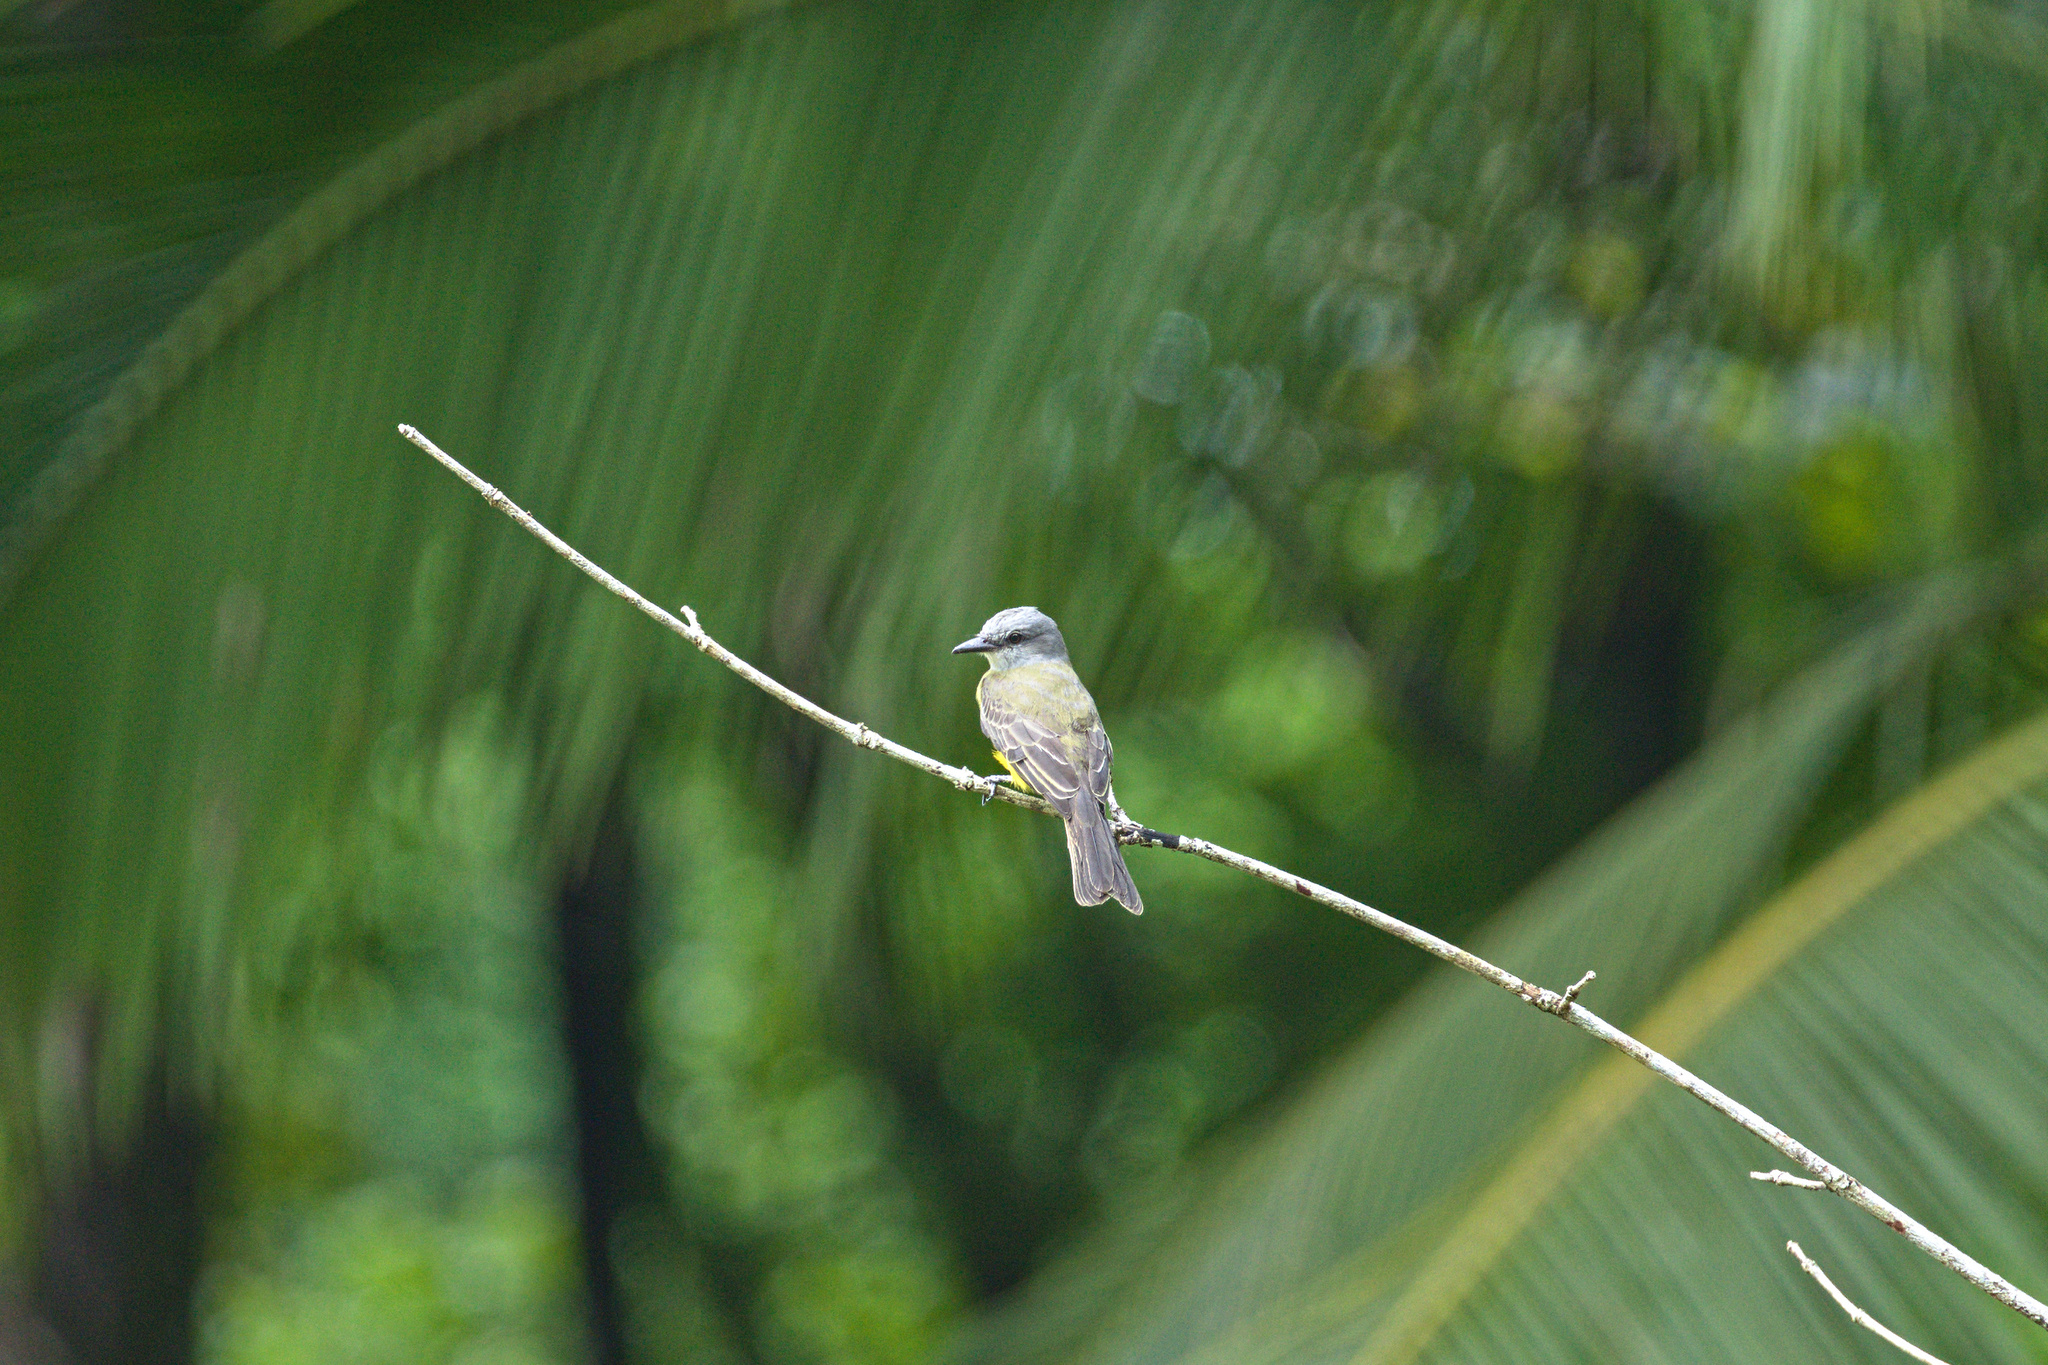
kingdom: Animalia
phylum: Chordata
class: Aves
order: Passeriformes
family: Tyrannidae
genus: Tyrannus
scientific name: Tyrannus melancholicus
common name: Tropical kingbird
